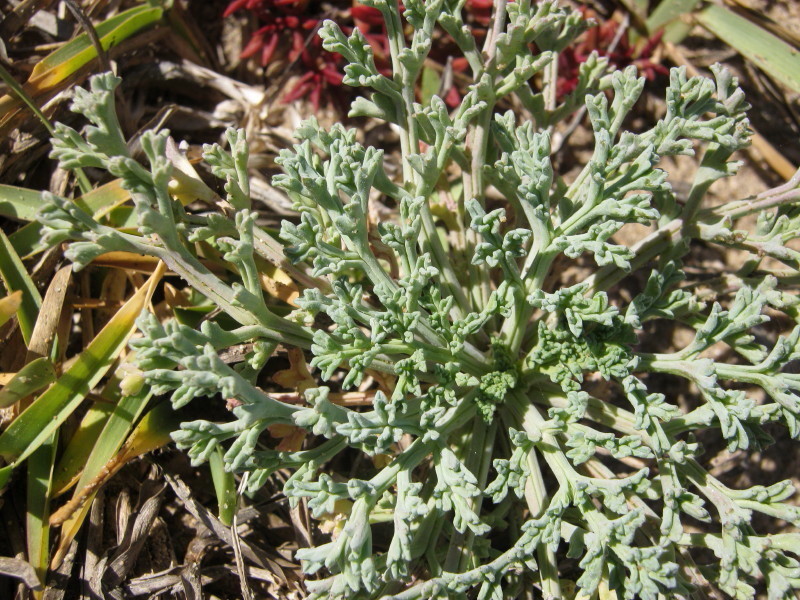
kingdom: Plantae
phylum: Tracheophyta
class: Magnoliopsida
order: Apiales
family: Apiaceae
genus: Dasispermum
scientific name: Dasispermum suffruticosum
